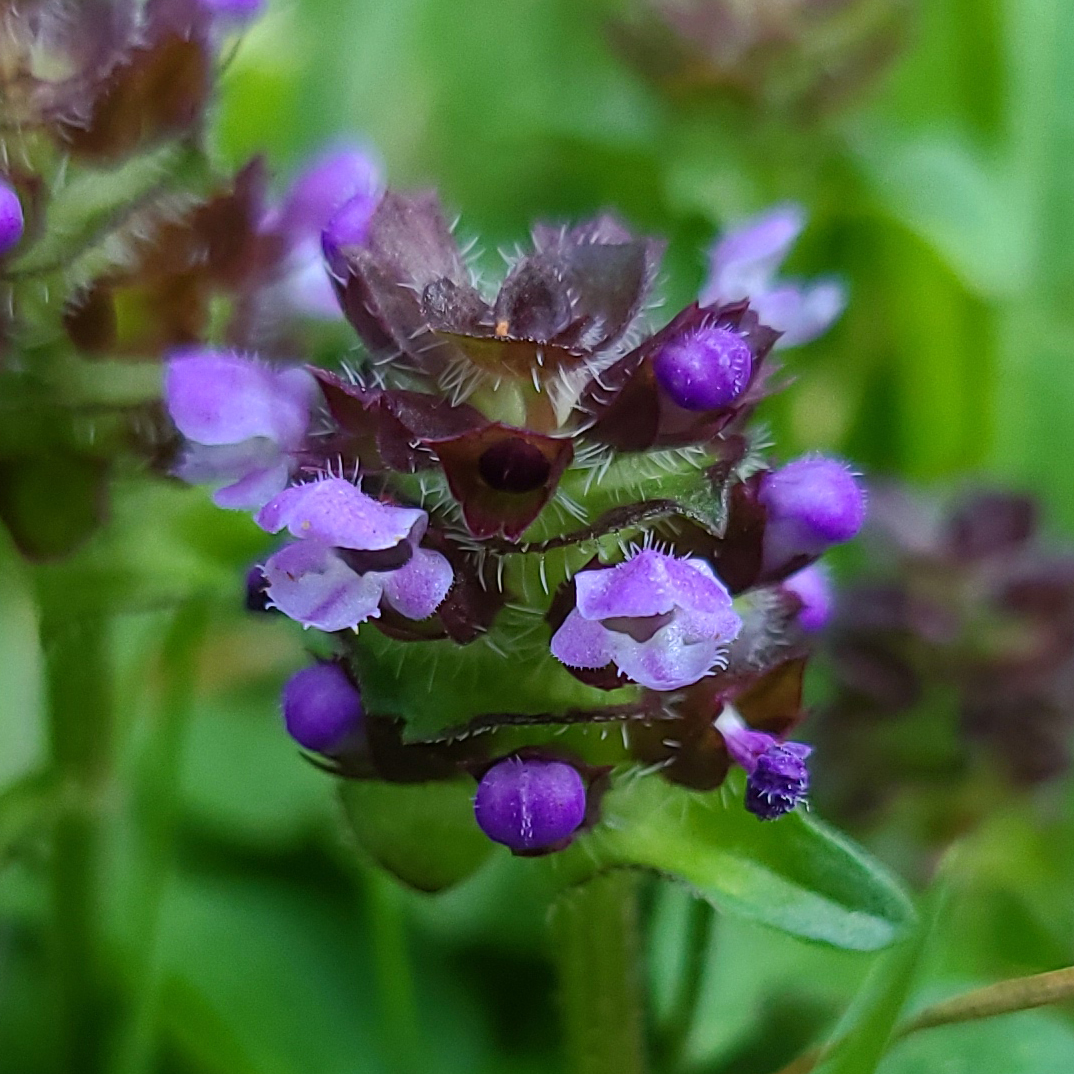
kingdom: Plantae
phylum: Tracheophyta
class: Magnoliopsida
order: Lamiales
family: Lamiaceae
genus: Prunella
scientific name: Prunella vulgaris
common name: Heal-all
